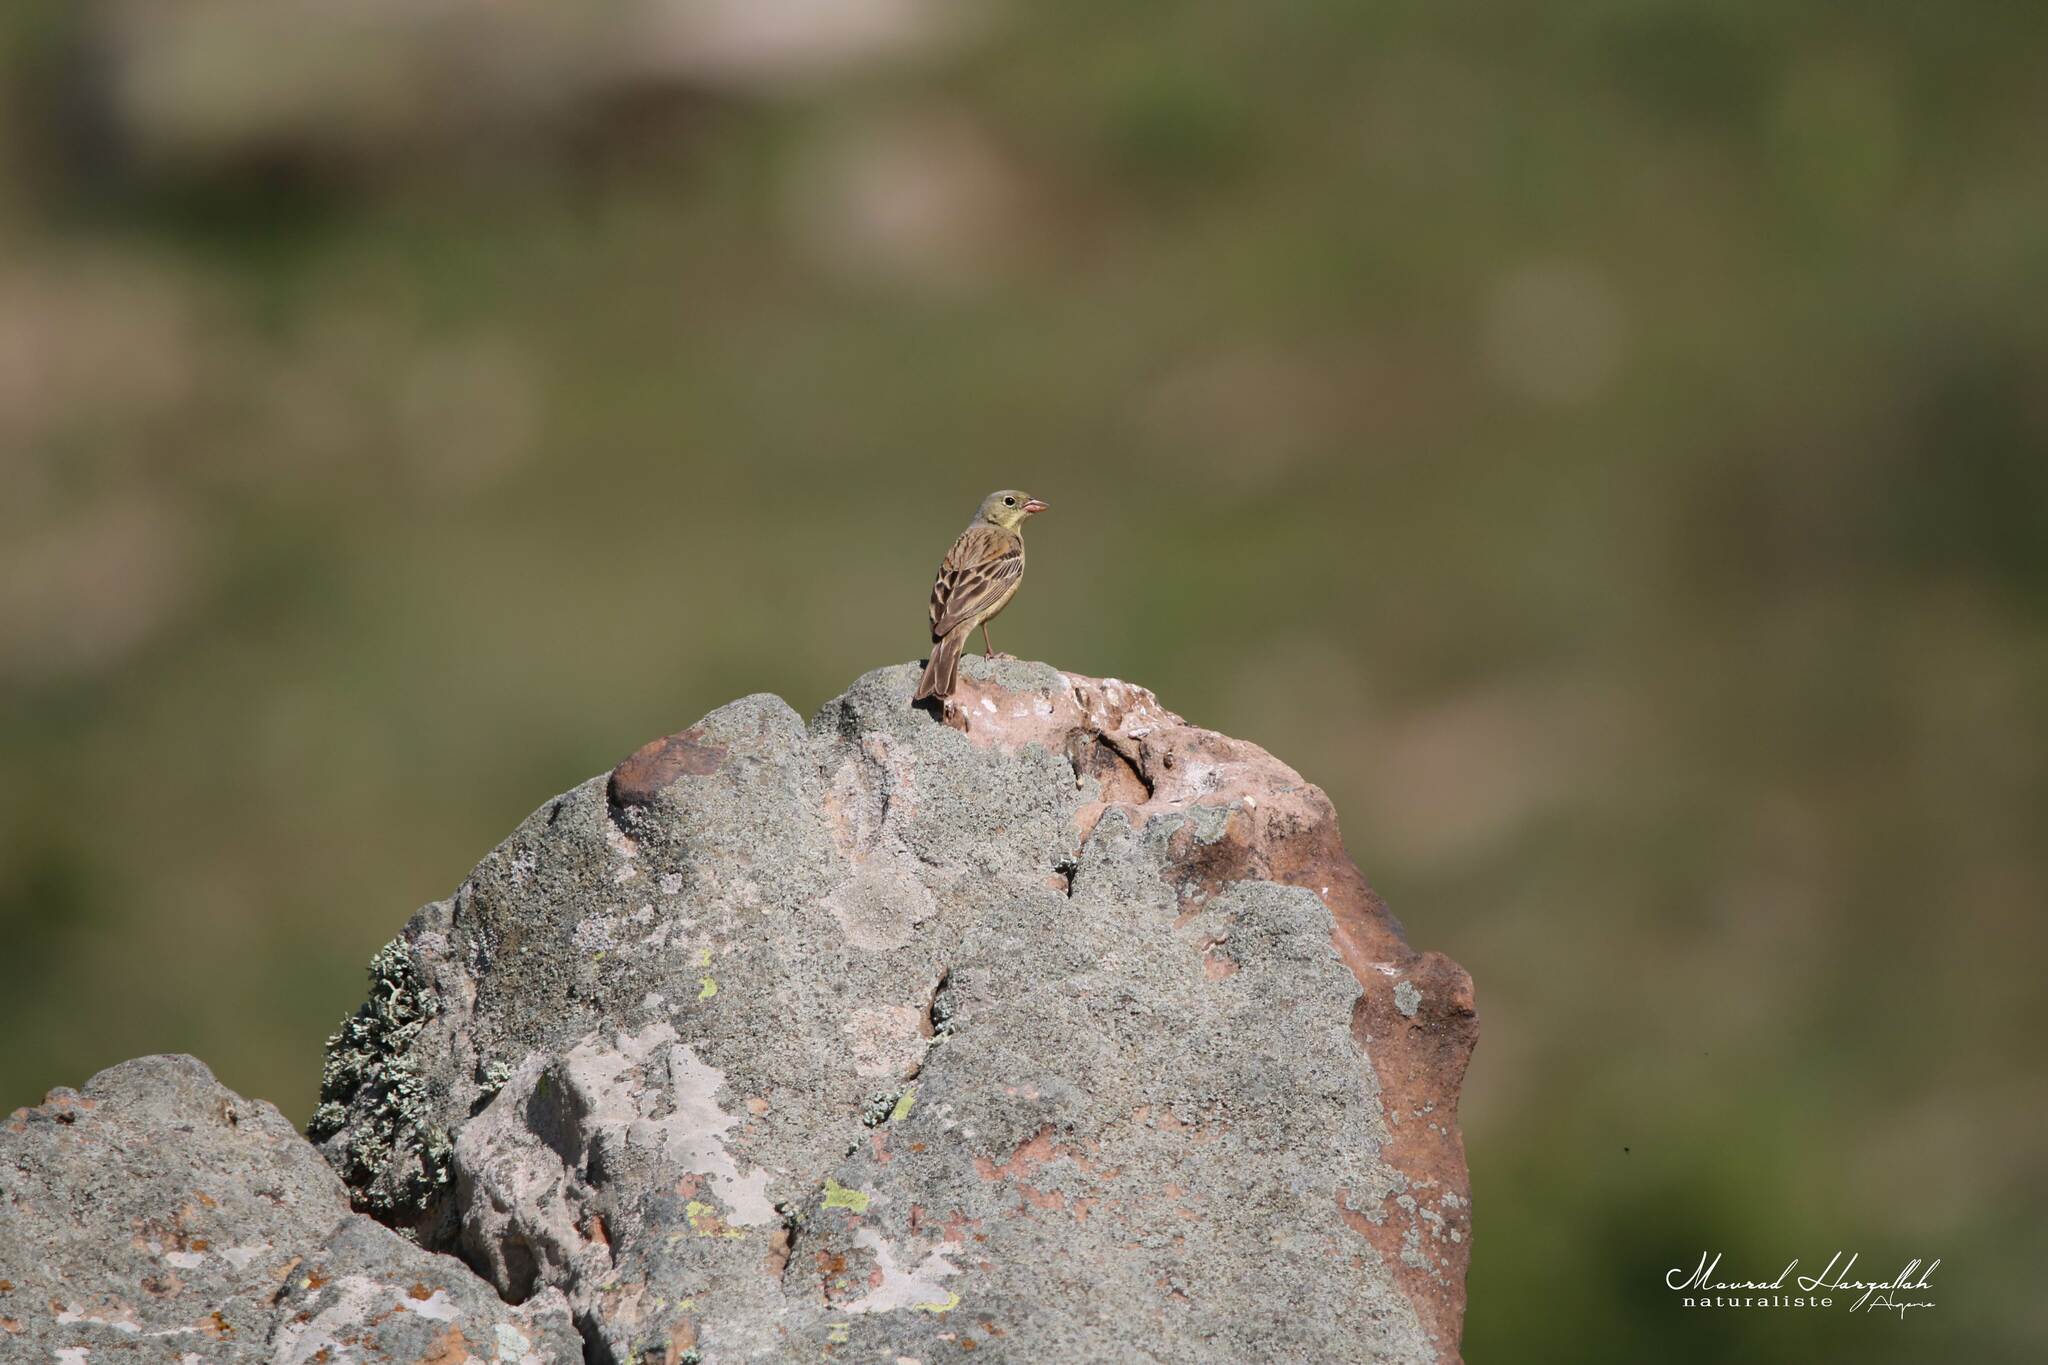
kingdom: Animalia
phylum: Chordata
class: Aves
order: Passeriformes
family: Emberizidae
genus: Emberiza
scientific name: Emberiza hortulana
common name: Ortolan bunting
